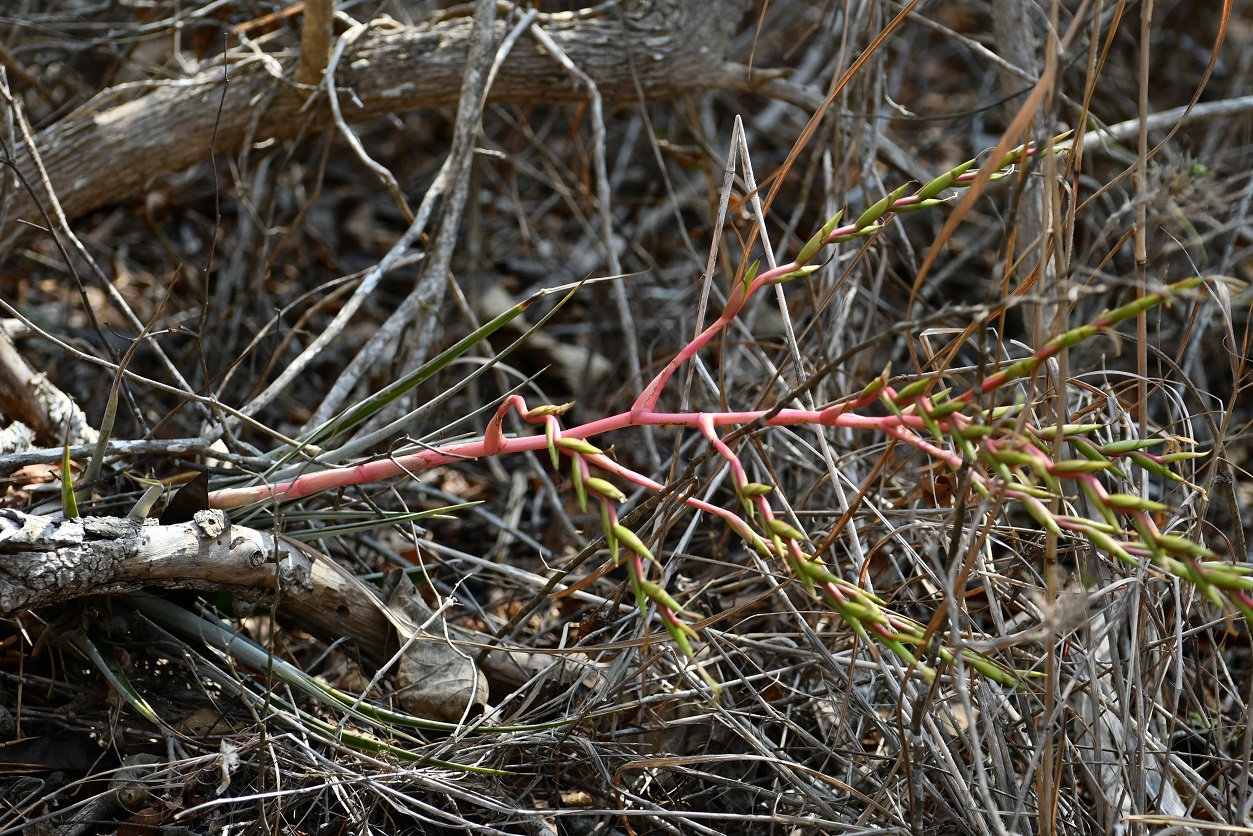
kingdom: Plantae
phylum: Tracheophyta
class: Liliopsida
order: Poales
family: Bromeliaceae
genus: Tillandsia
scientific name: Tillandsia elusiva
